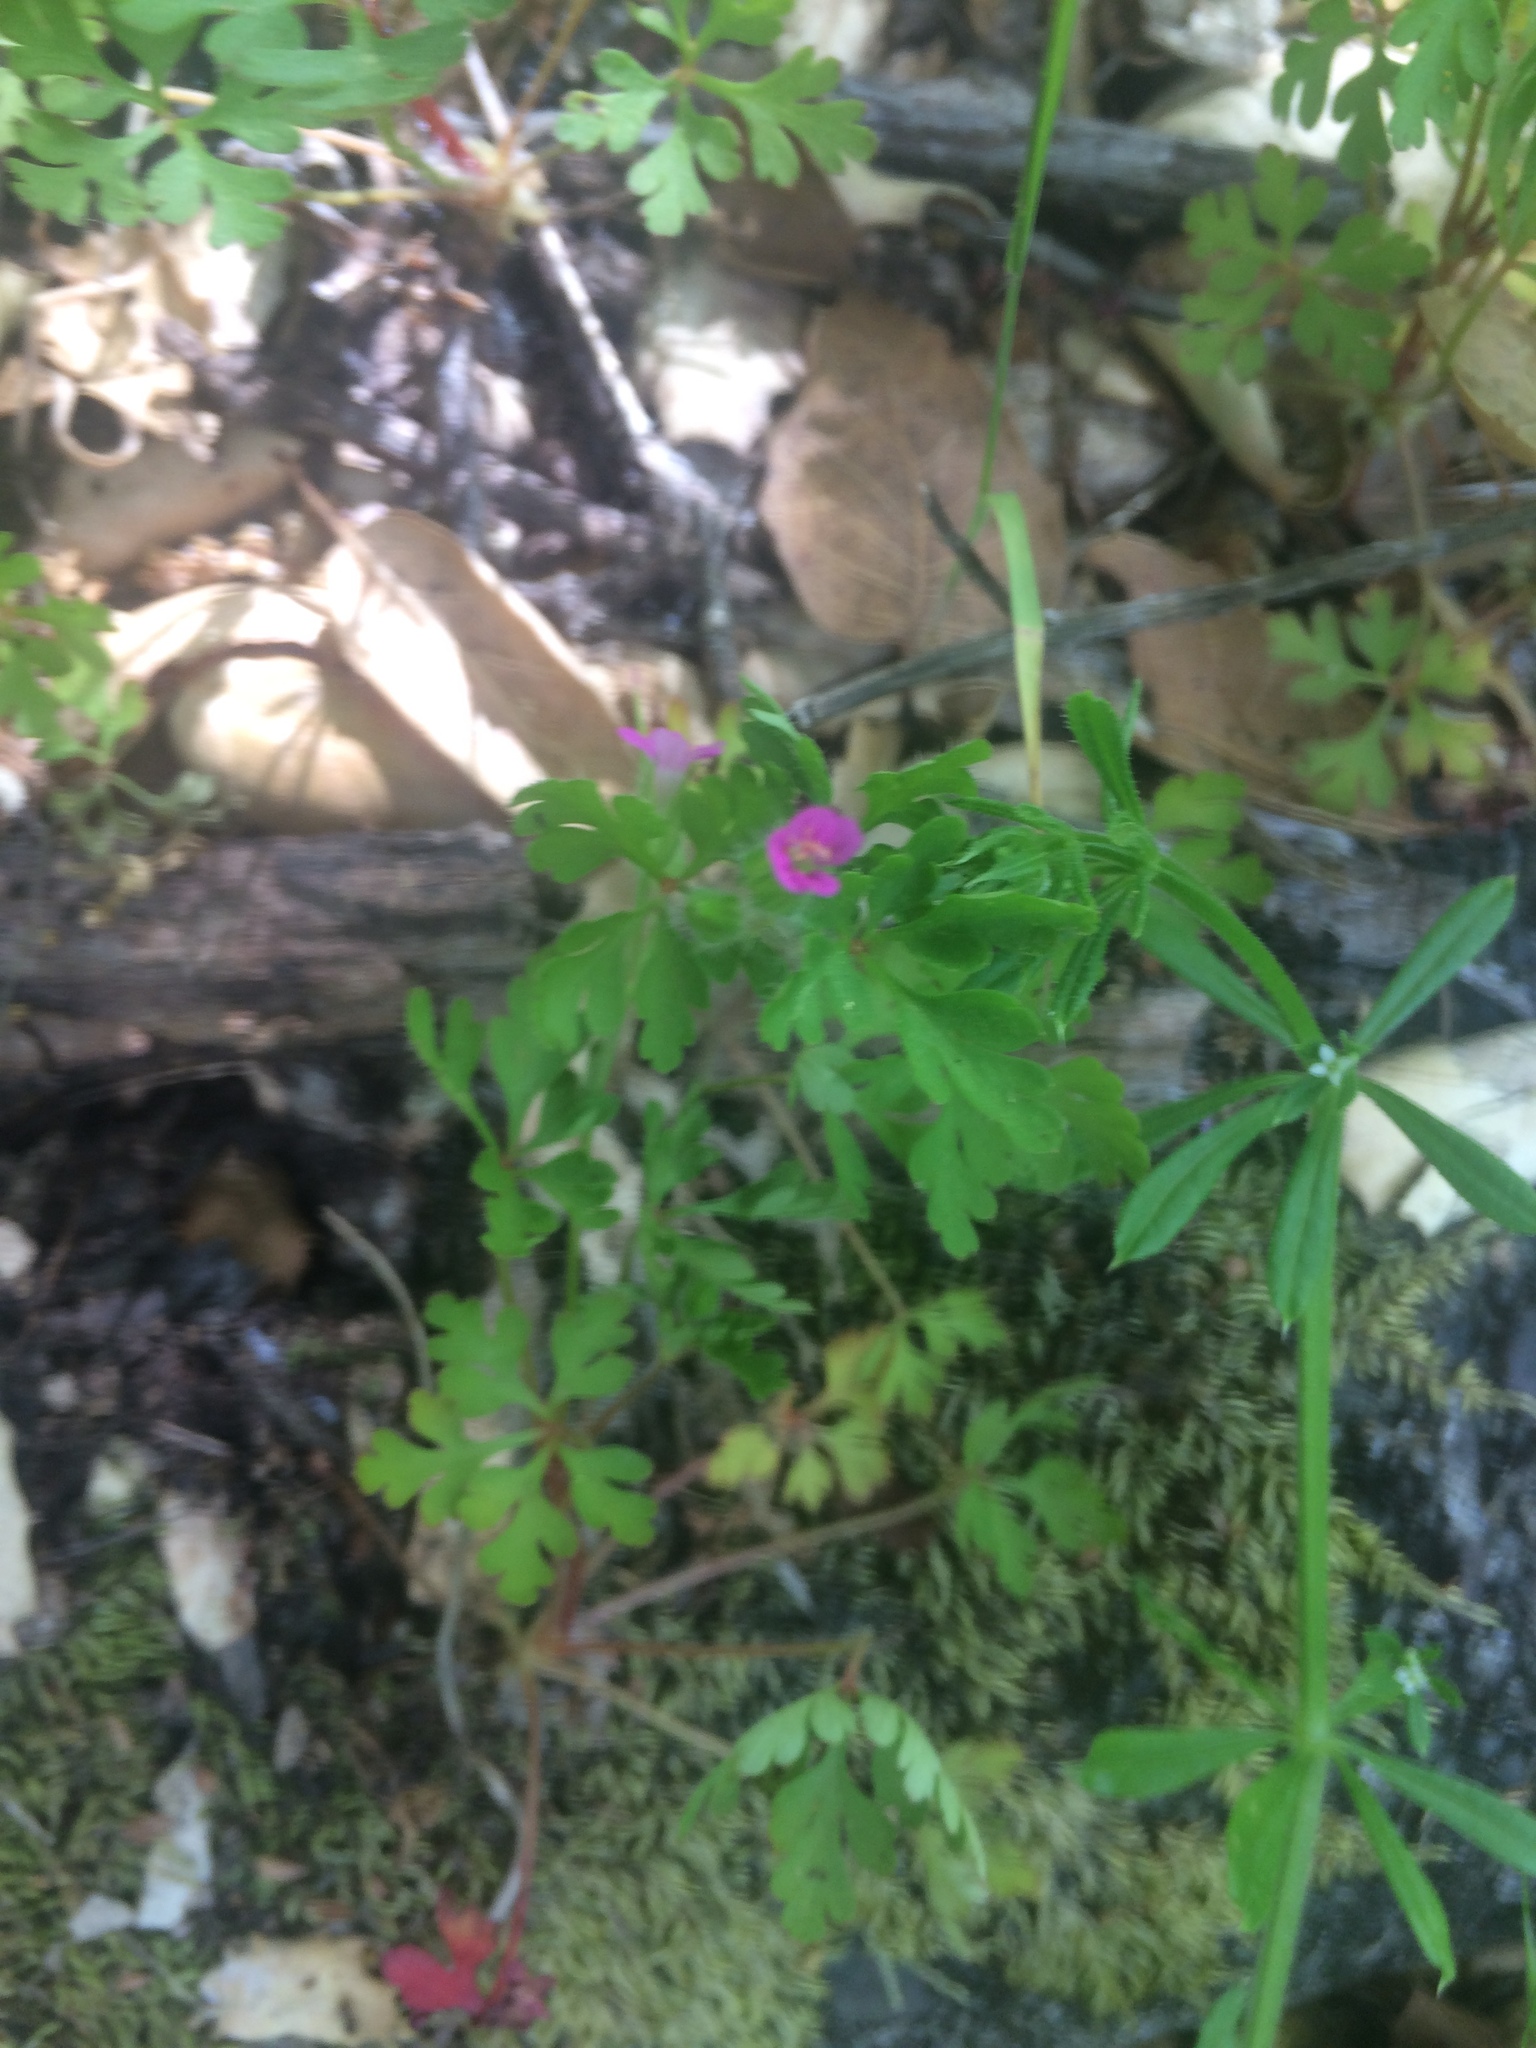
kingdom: Plantae
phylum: Tracheophyta
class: Magnoliopsida
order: Geraniales
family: Geraniaceae
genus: Geranium
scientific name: Geranium purpureum
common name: Little-robin
